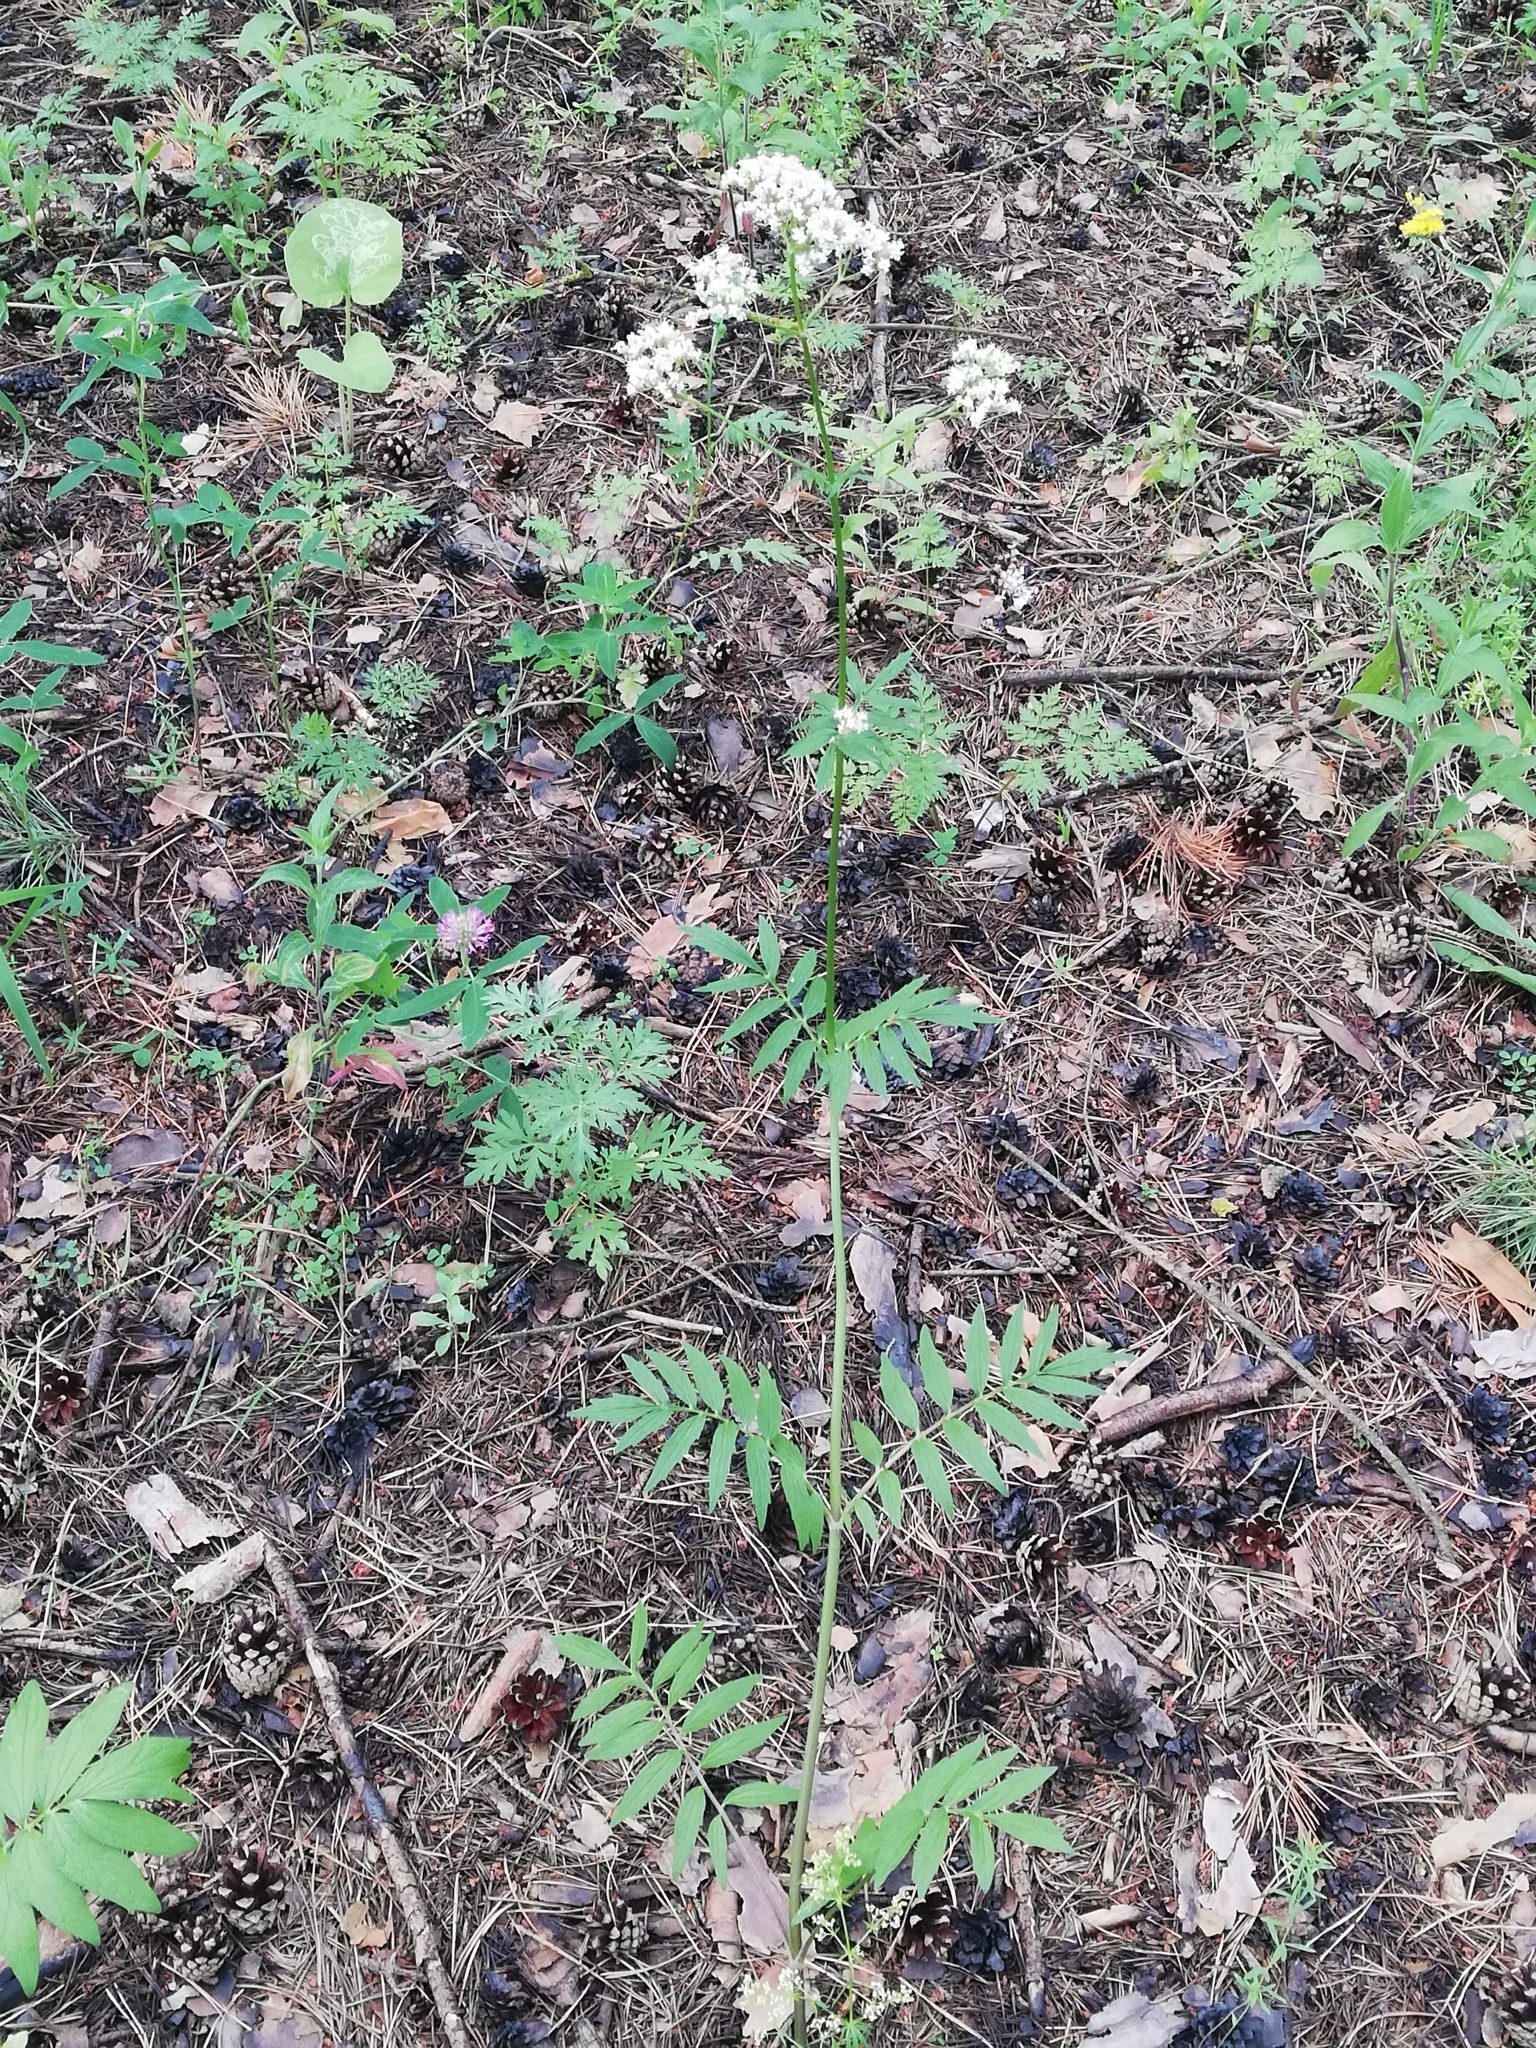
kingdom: Plantae
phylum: Tracheophyta
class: Magnoliopsida
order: Dipsacales
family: Caprifoliaceae
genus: Valeriana
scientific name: Valeriana officinalis
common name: Common valerian
